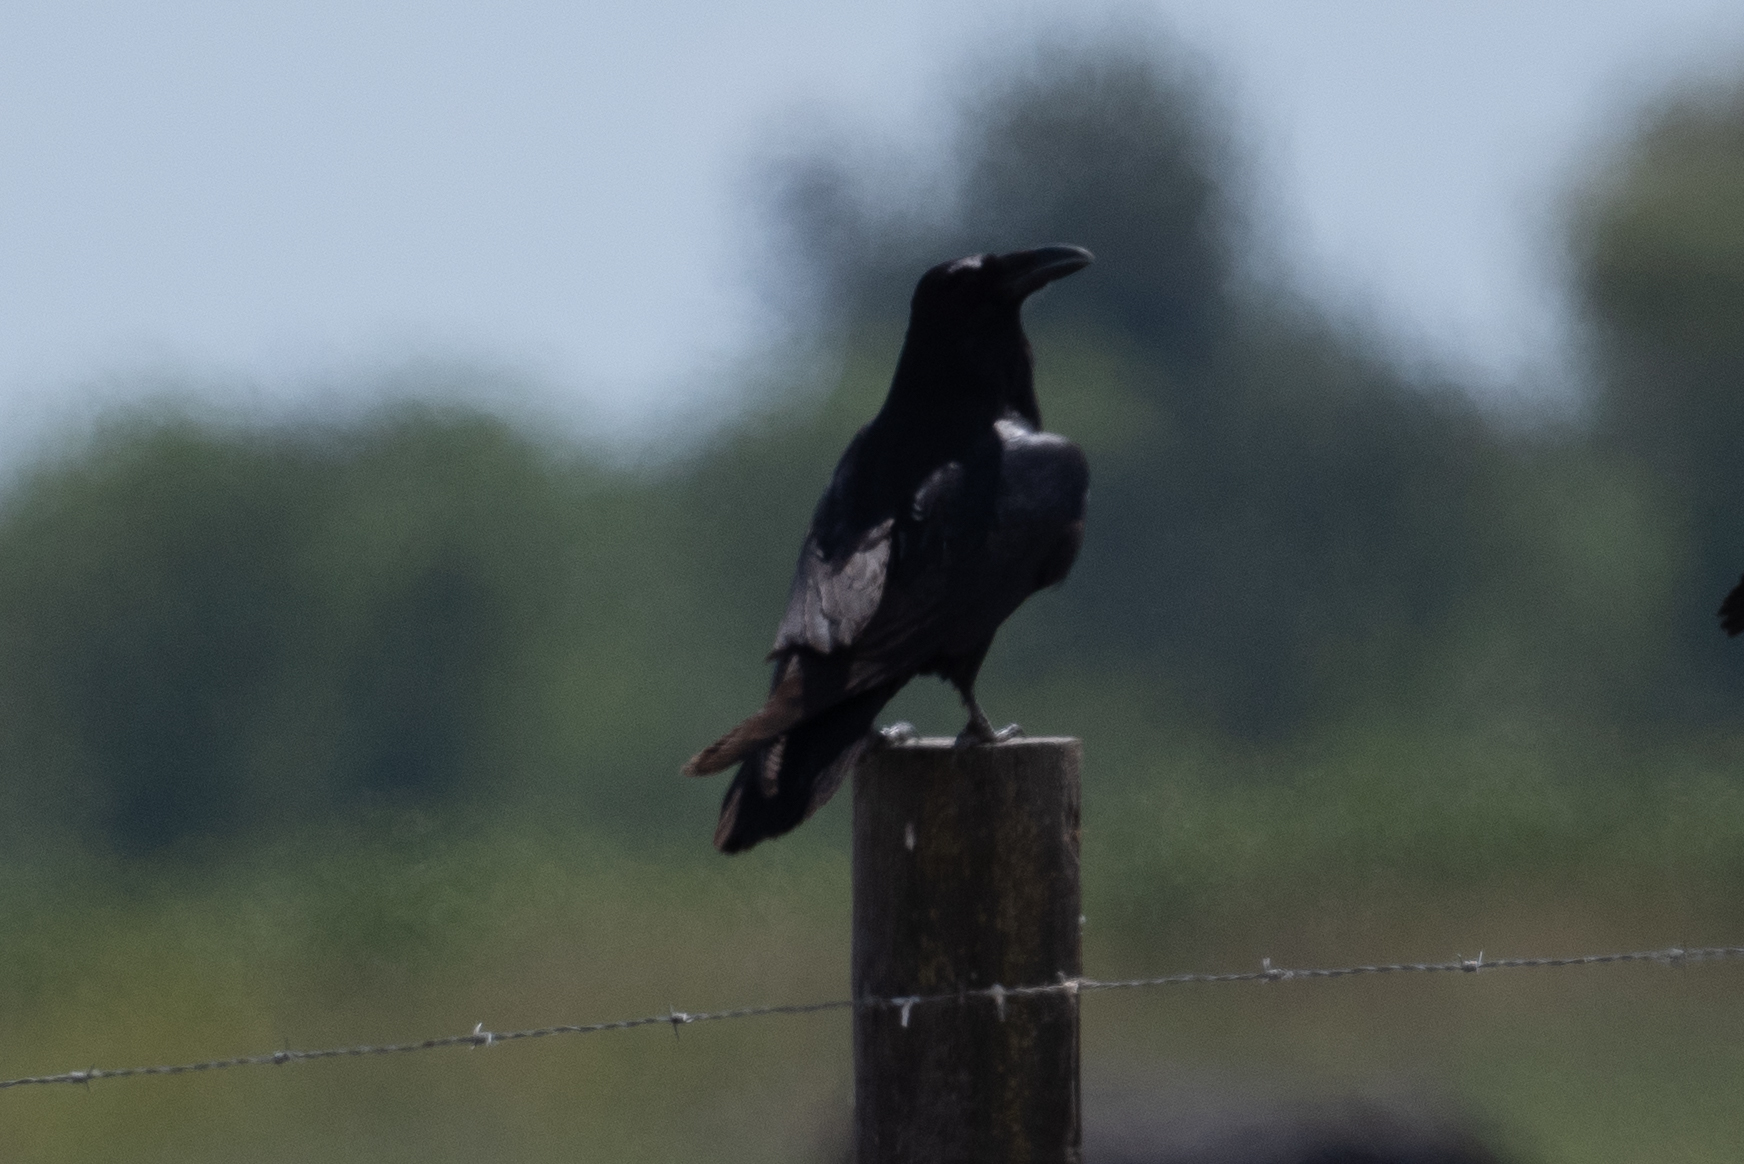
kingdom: Animalia
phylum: Chordata
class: Aves
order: Passeriformes
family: Corvidae
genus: Corvus
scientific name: Corvus corax
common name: Common raven
